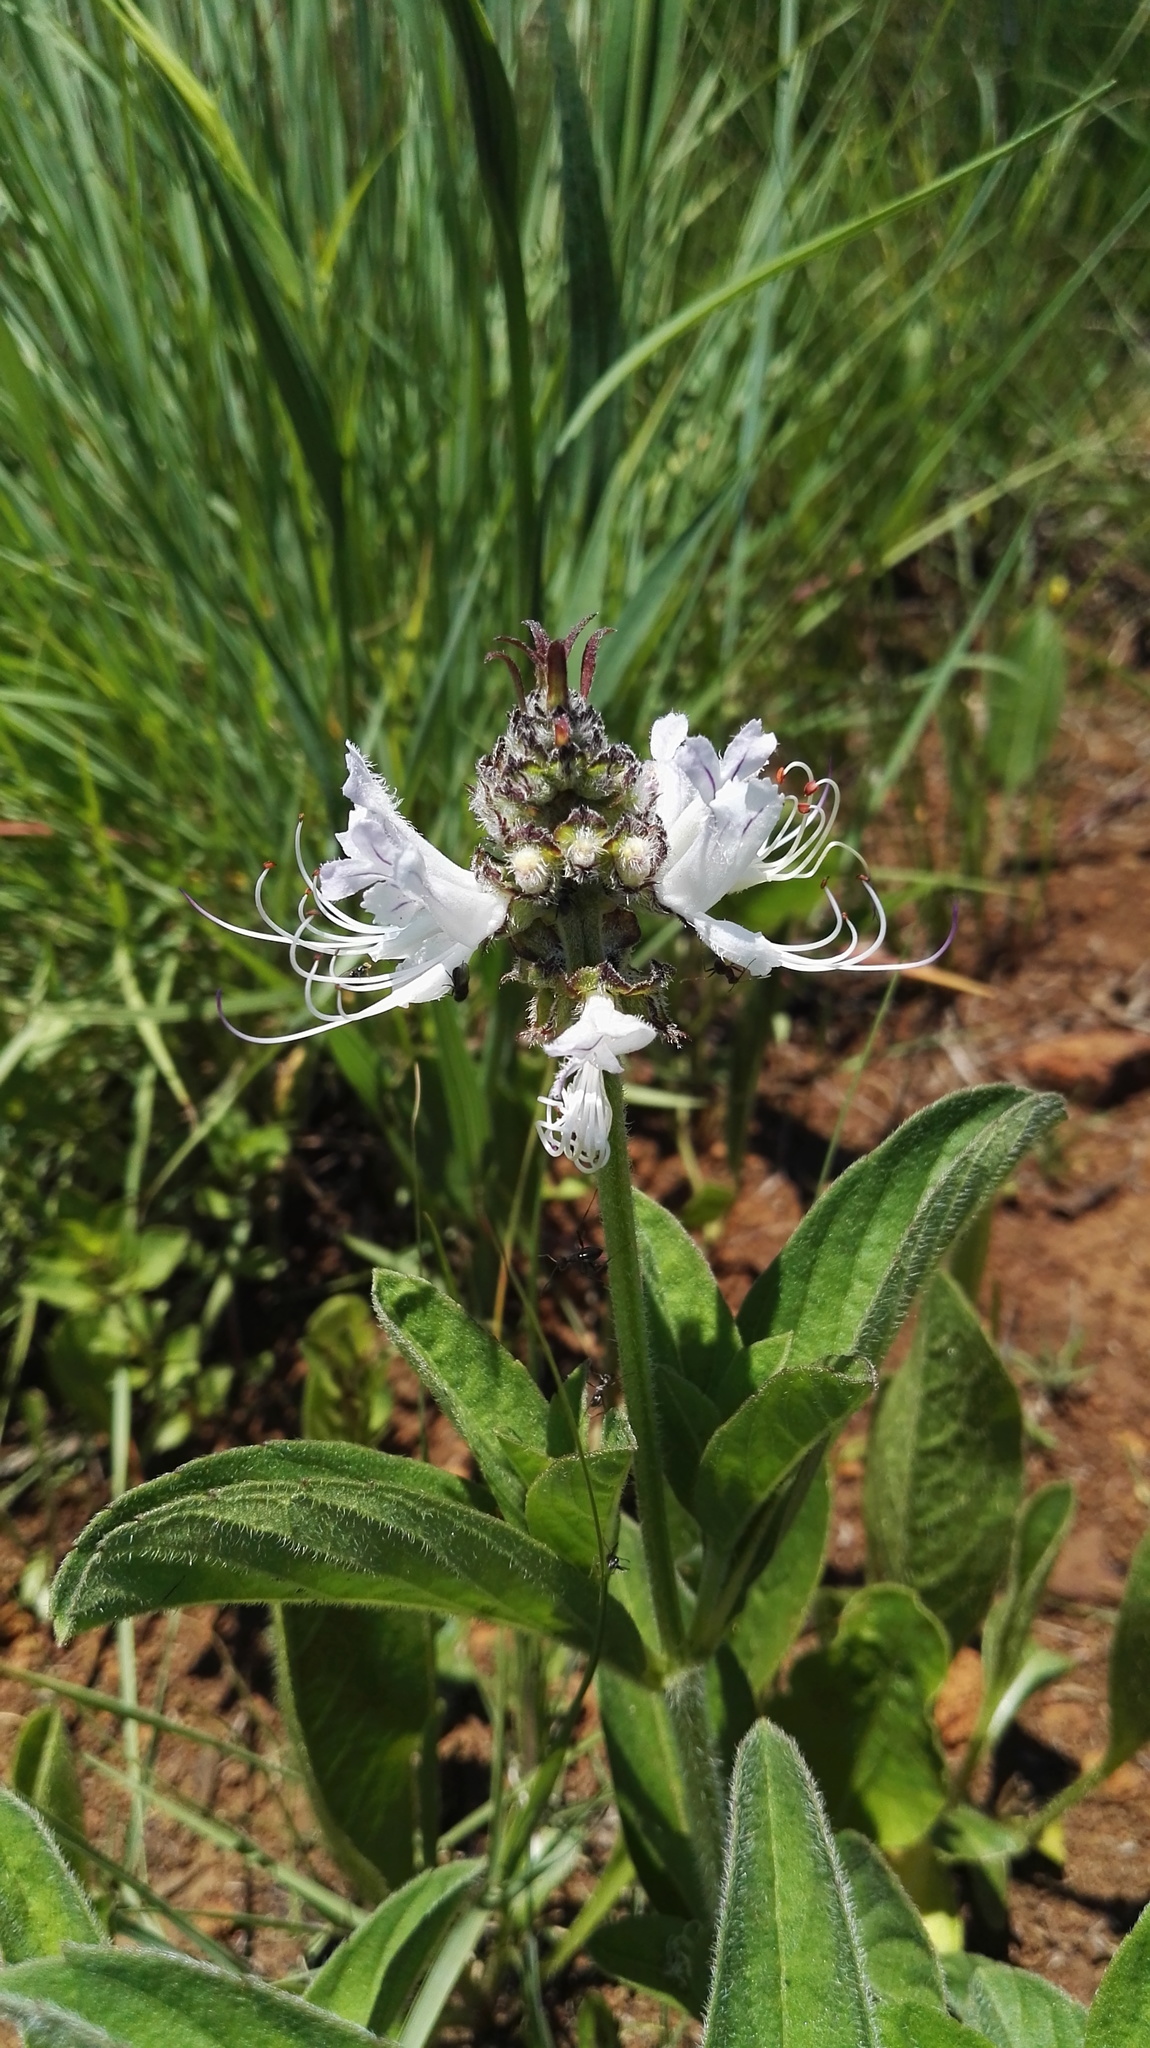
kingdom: Plantae
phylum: Tracheophyta
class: Magnoliopsida
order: Lamiales
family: Lamiaceae
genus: Ocimum
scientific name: Ocimum obovatum
